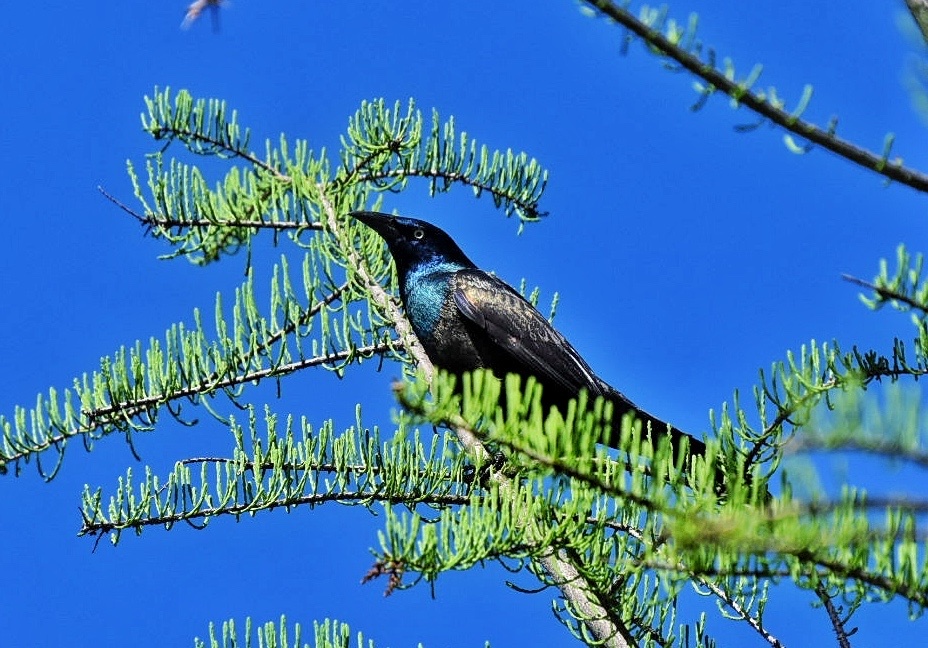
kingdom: Animalia
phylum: Chordata
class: Aves
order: Passeriformes
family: Icteridae
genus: Quiscalus
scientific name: Quiscalus quiscula
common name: Common grackle
